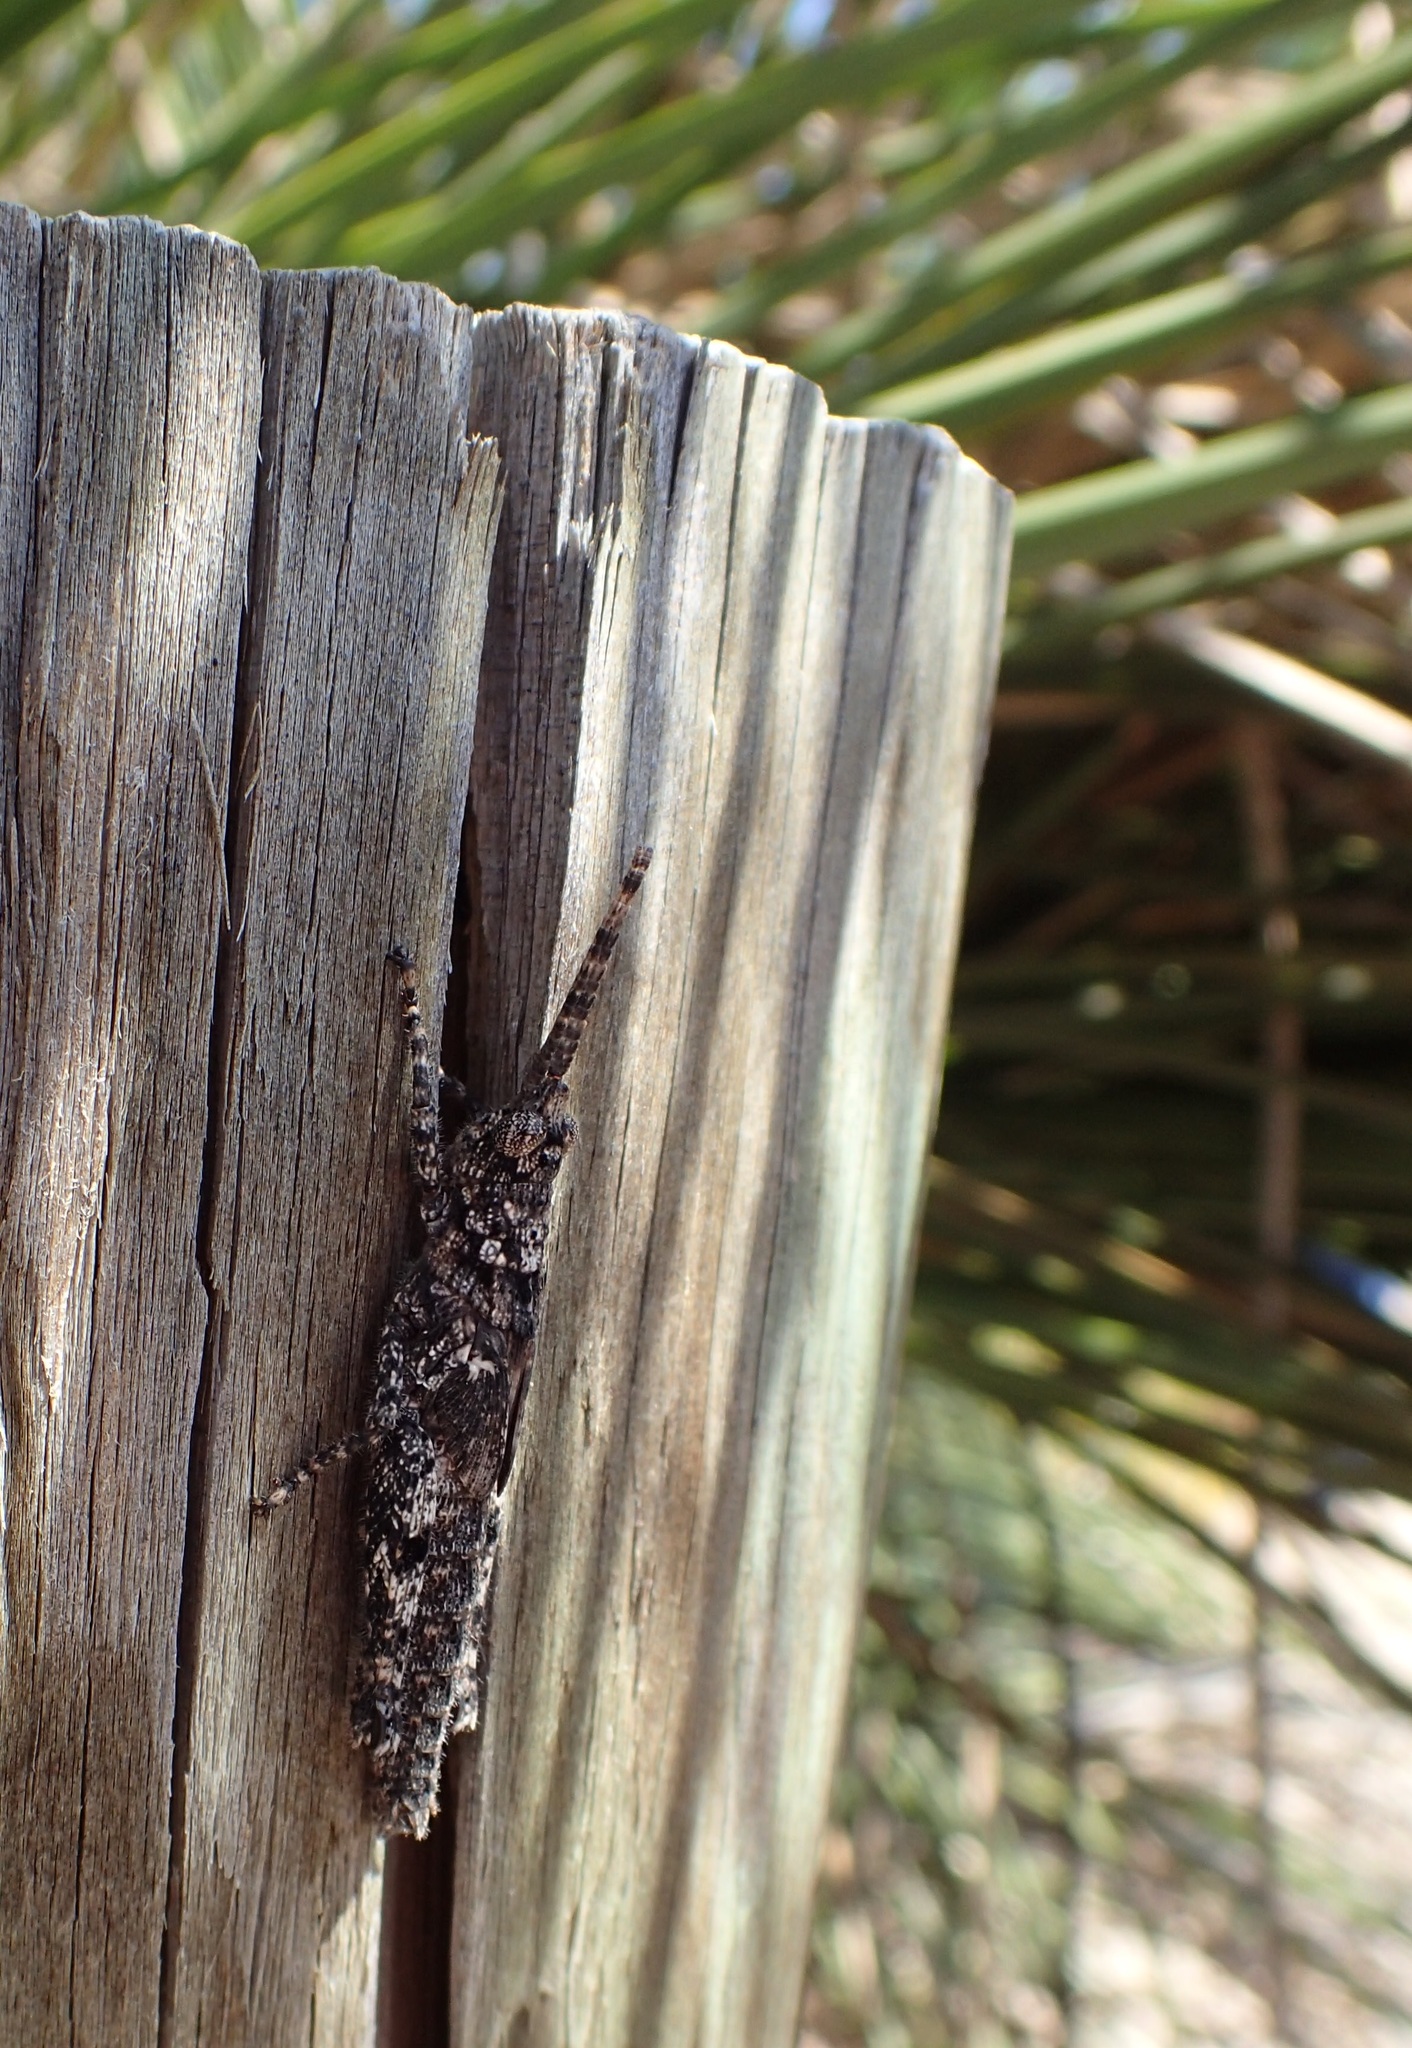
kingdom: Animalia
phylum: Arthropoda
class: Insecta
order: Orthoptera
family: Acrididae
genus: Coryphistes
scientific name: Coryphistes ruricola
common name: Bark-mimicking grasshopper
